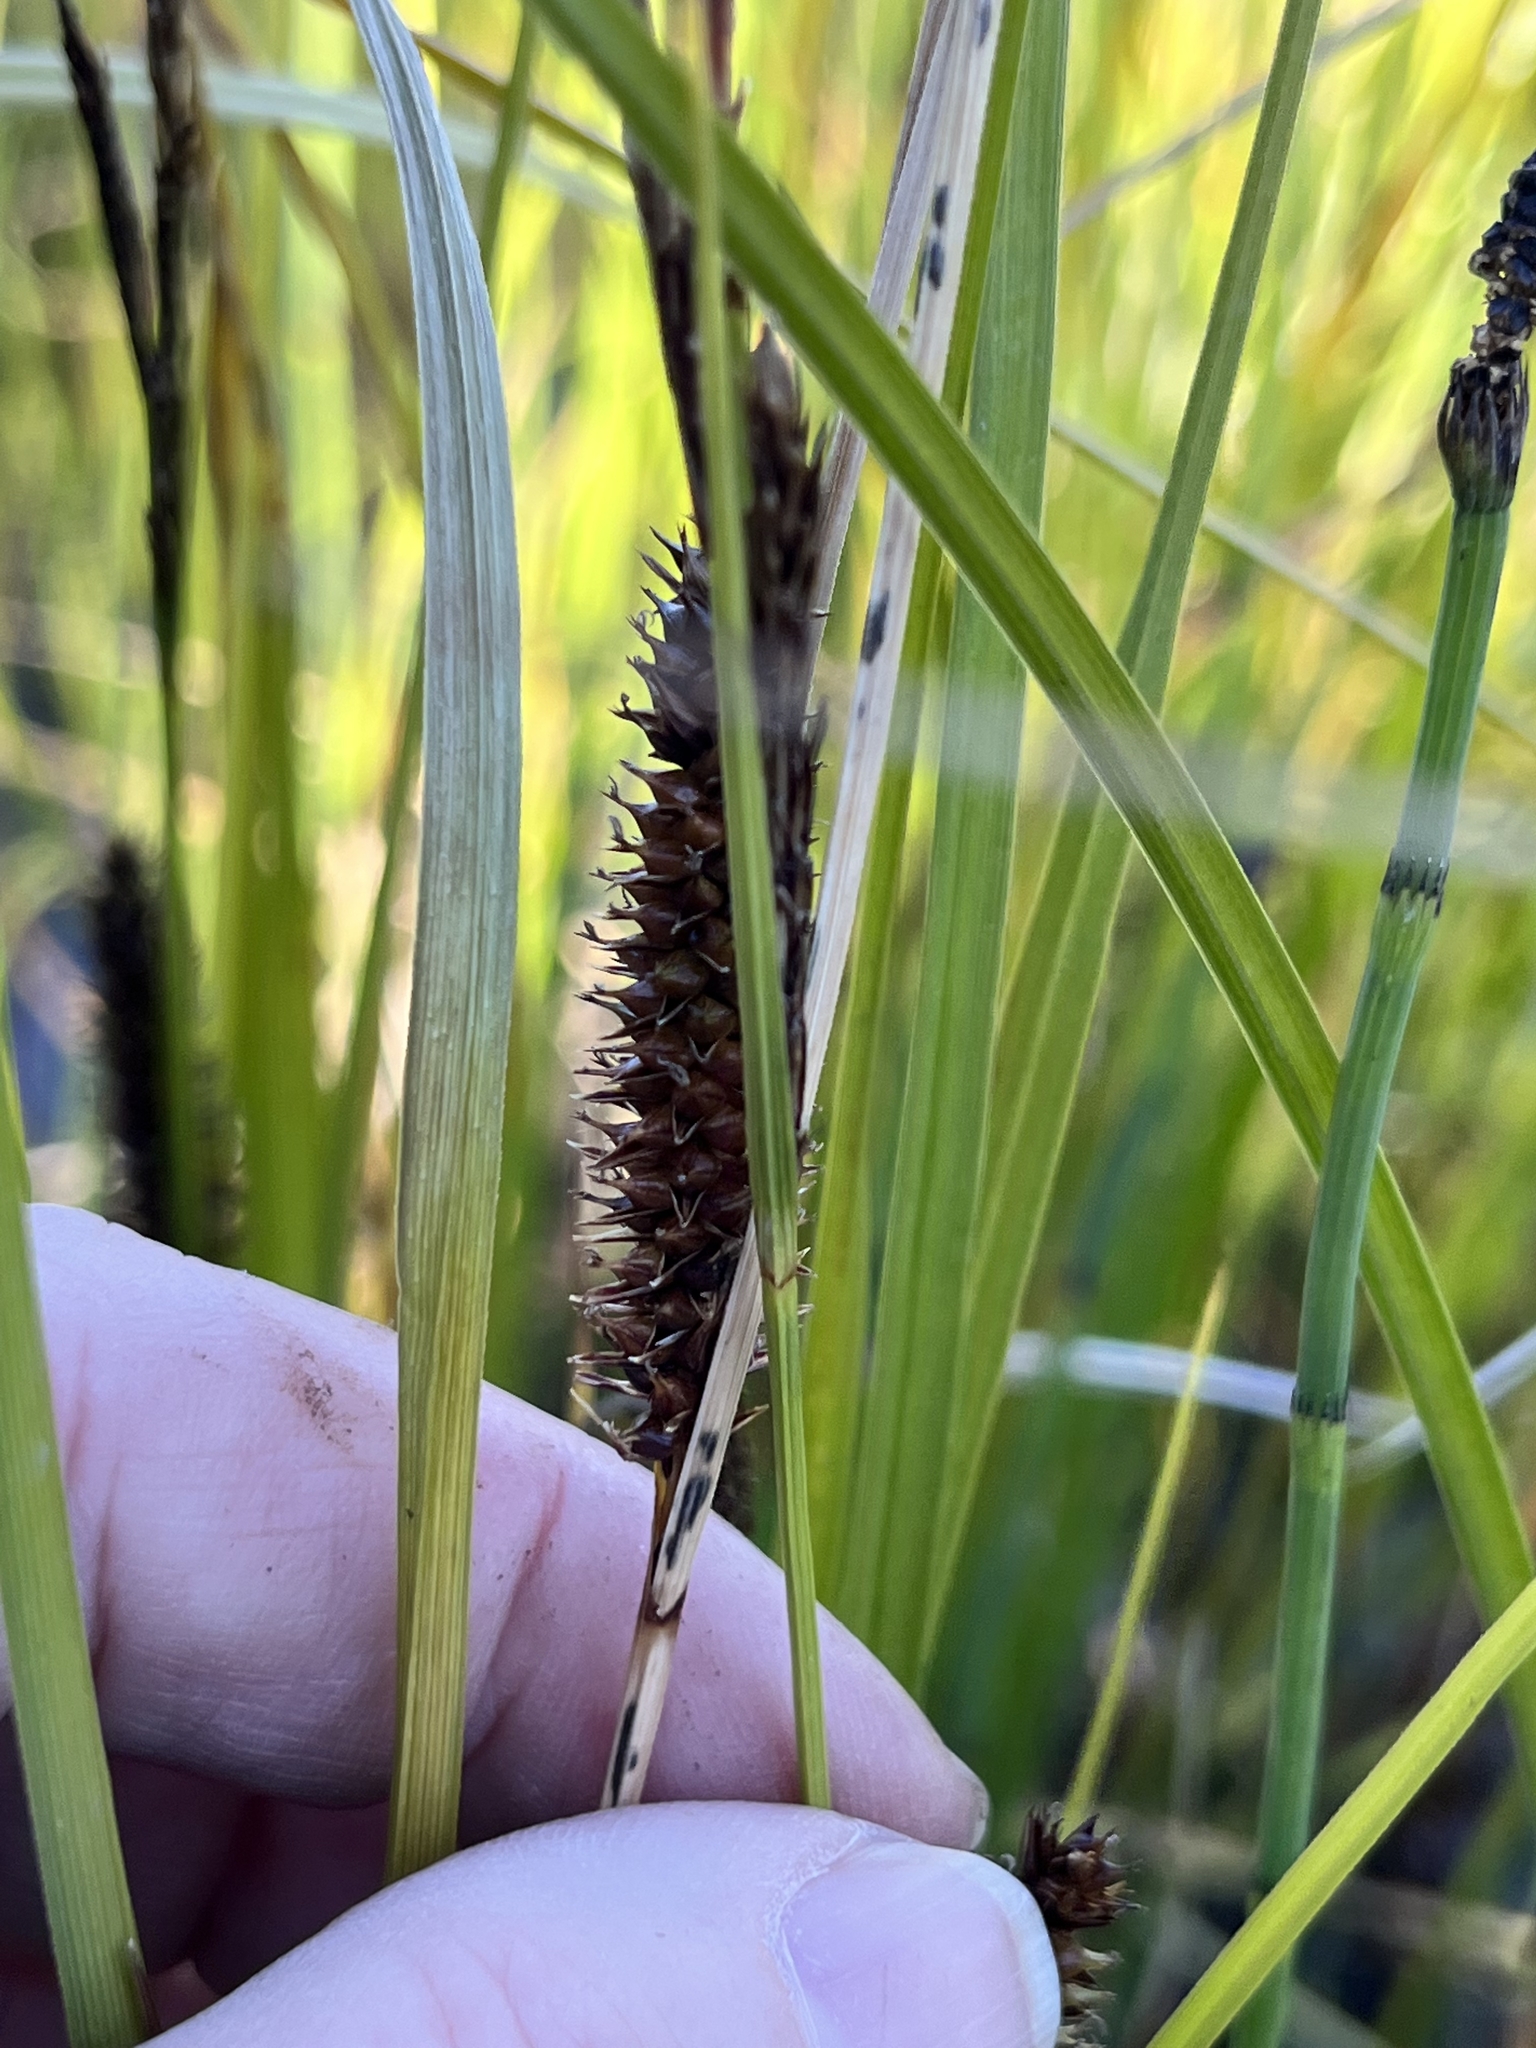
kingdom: Plantae
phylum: Tracheophyta
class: Liliopsida
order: Poales
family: Cyperaceae
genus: Carex
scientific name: Carex utriculata
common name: Beaked sedge
